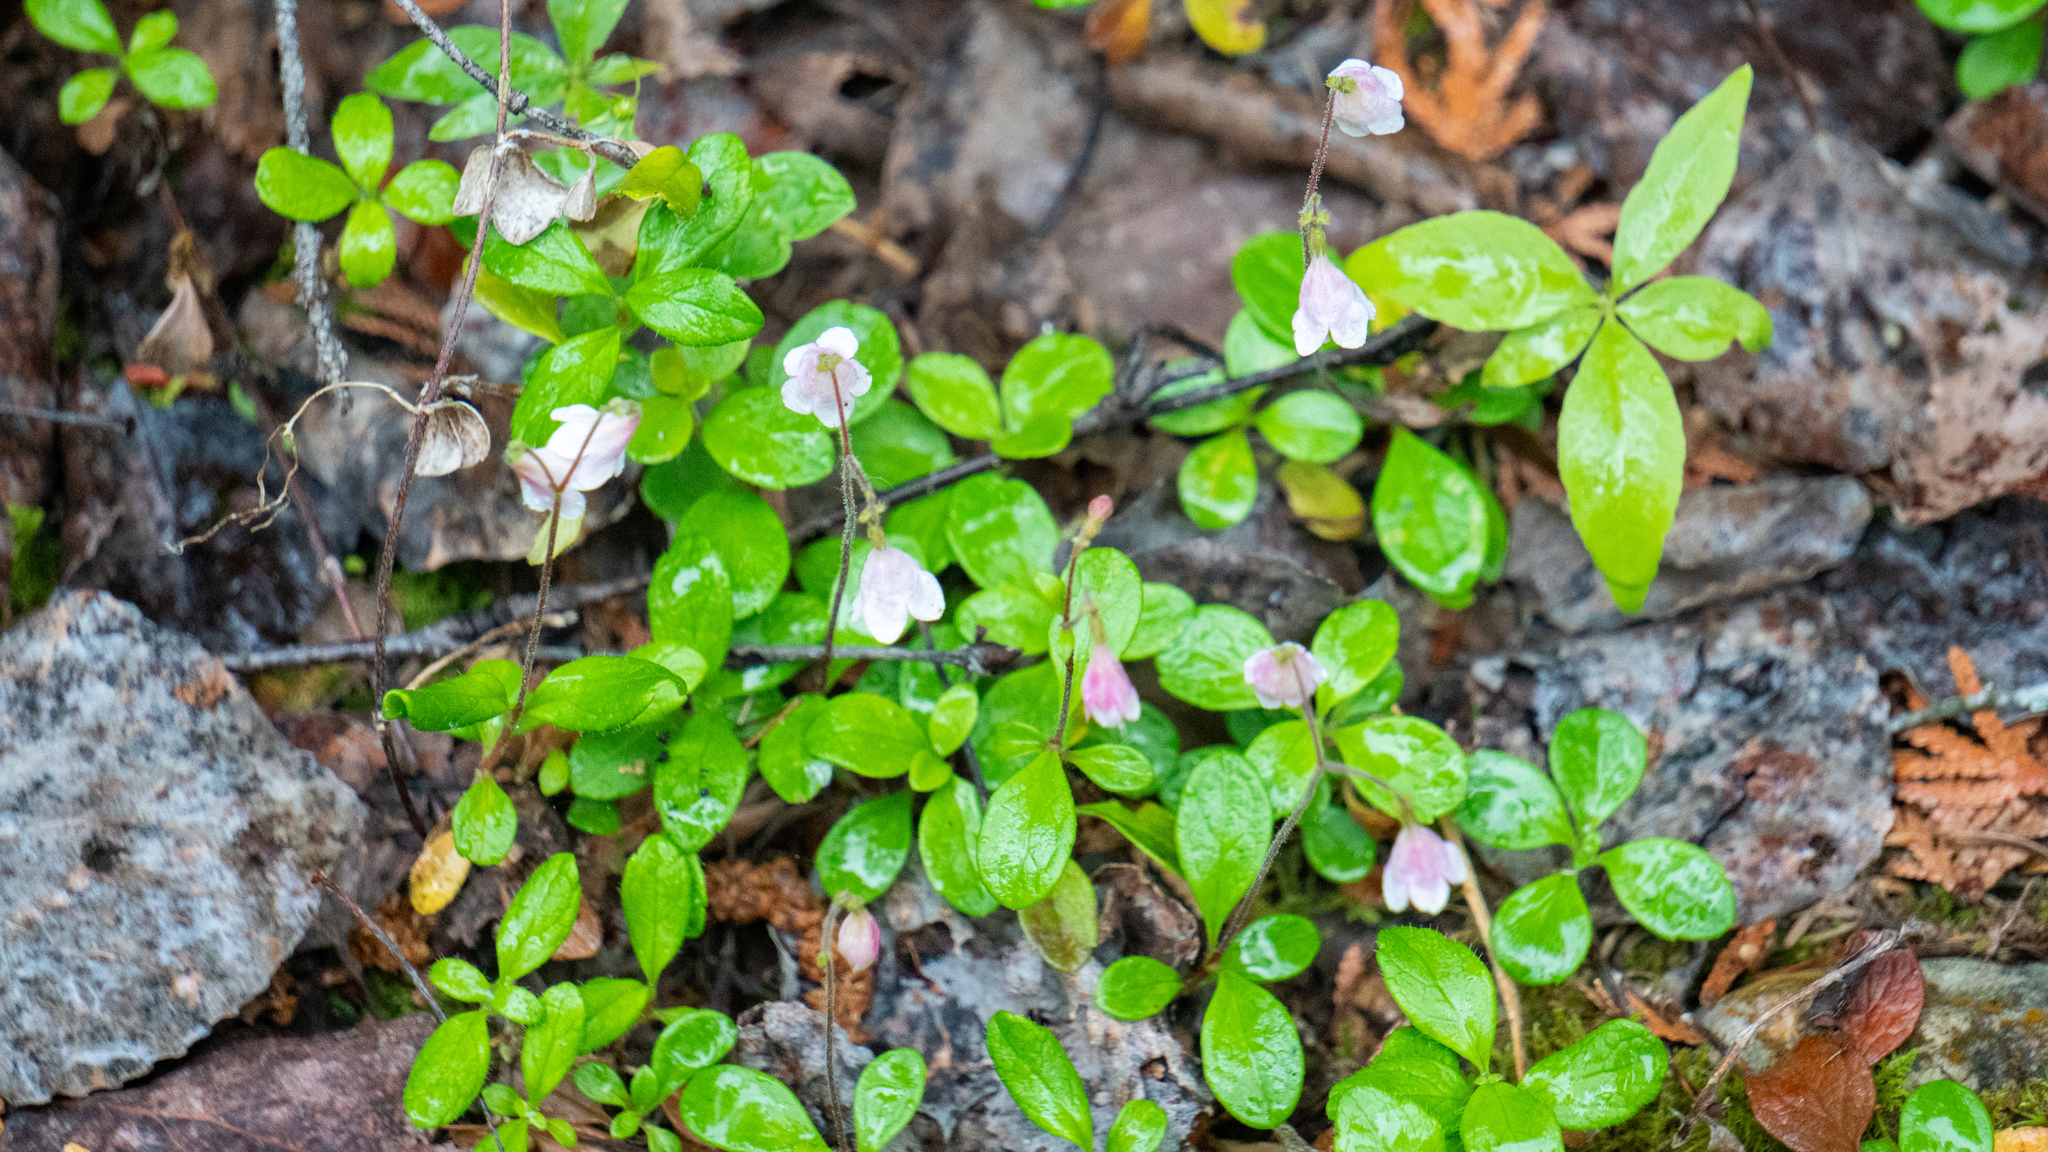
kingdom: Plantae
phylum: Tracheophyta
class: Magnoliopsida
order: Dipsacales
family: Caprifoliaceae
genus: Linnaea
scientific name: Linnaea borealis
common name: Twinflower
